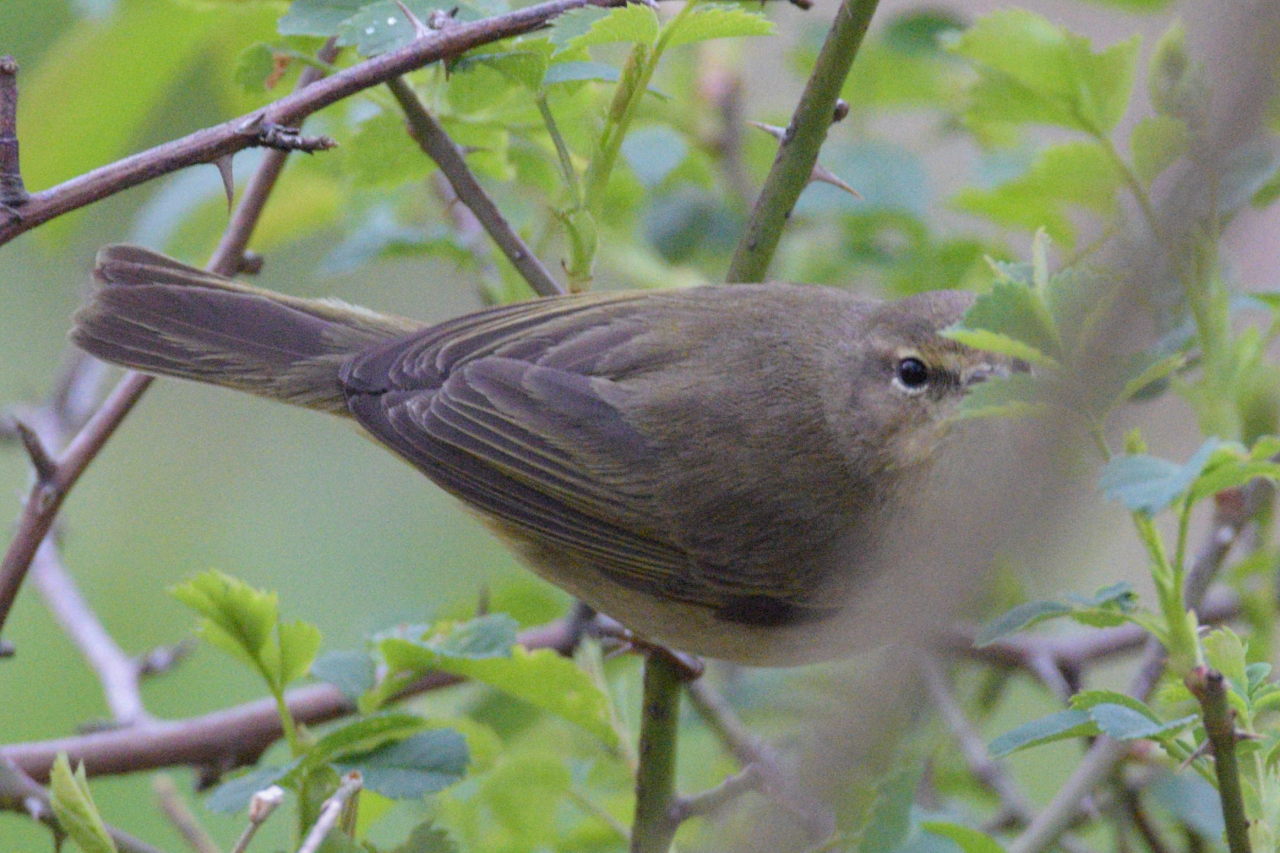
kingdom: Animalia
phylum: Chordata
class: Aves
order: Passeriformes
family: Phylloscopidae
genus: Phylloscopus
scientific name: Phylloscopus collybita
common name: Common chiffchaff
